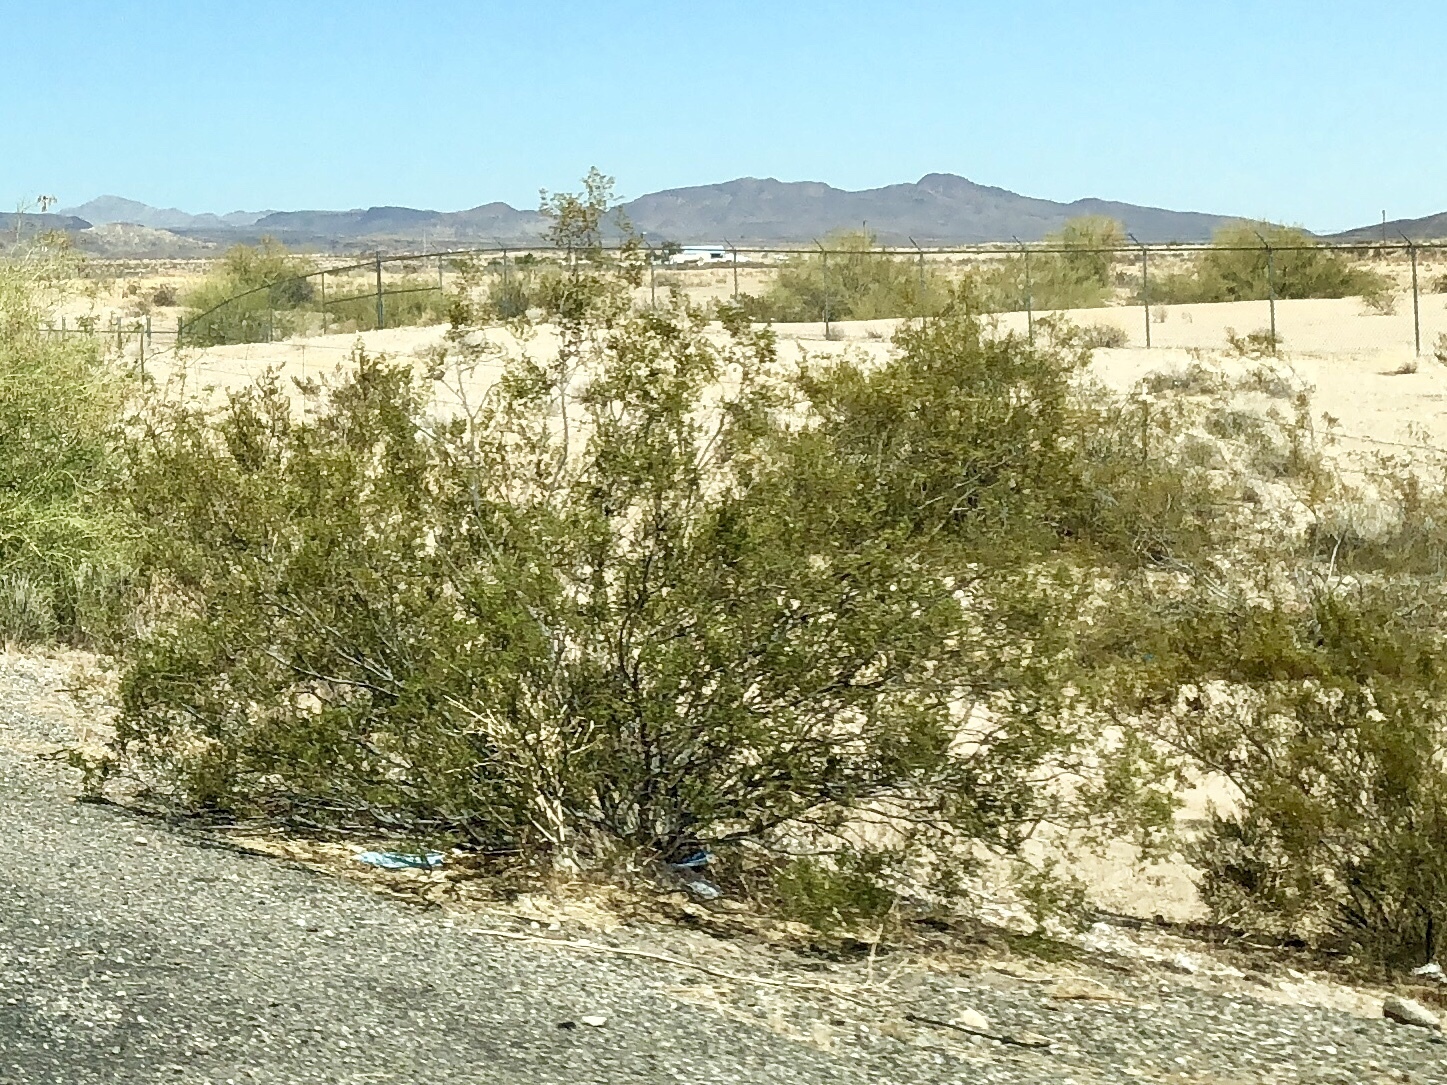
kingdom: Plantae
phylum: Tracheophyta
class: Magnoliopsida
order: Zygophyllales
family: Zygophyllaceae
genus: Larrea
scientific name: Larrea tridentata
